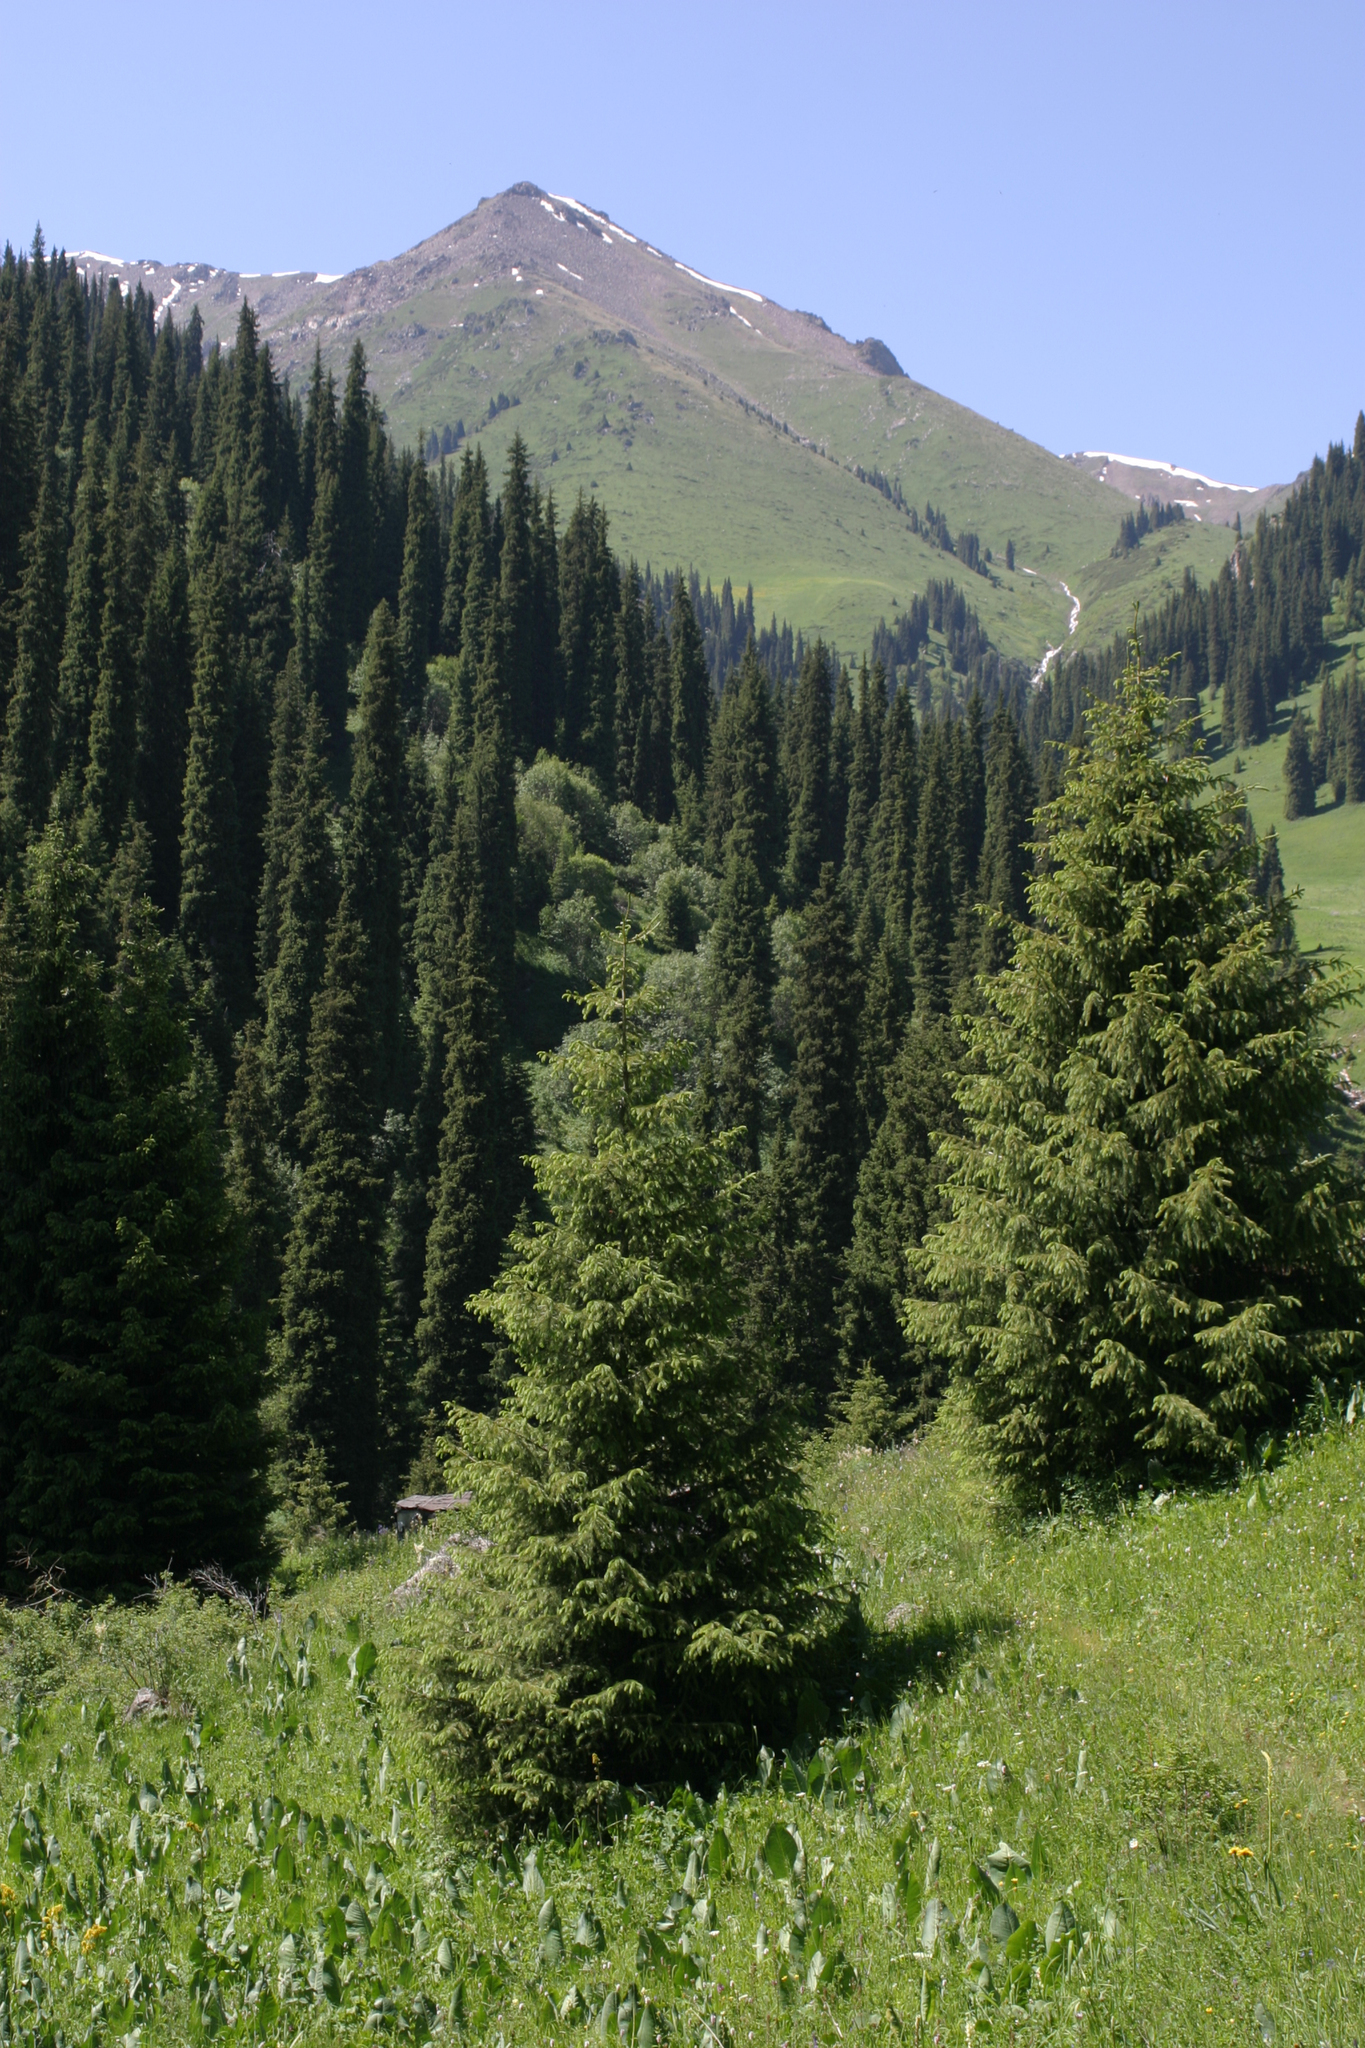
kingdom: Plantae
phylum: Tracheophyta
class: Pinopsida
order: Pinales
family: Pinaceae
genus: Picea
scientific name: Picea schrenkiana
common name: Asian spruce
